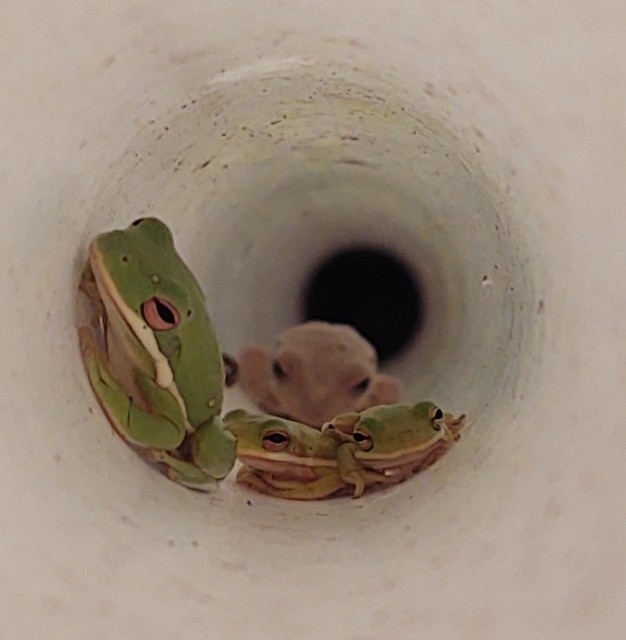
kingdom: Animalia
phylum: Chordata
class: Amphibia
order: Anura
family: Hylidae
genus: Dryophytes
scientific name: Dryophytes cinereus
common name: Green treefrog
